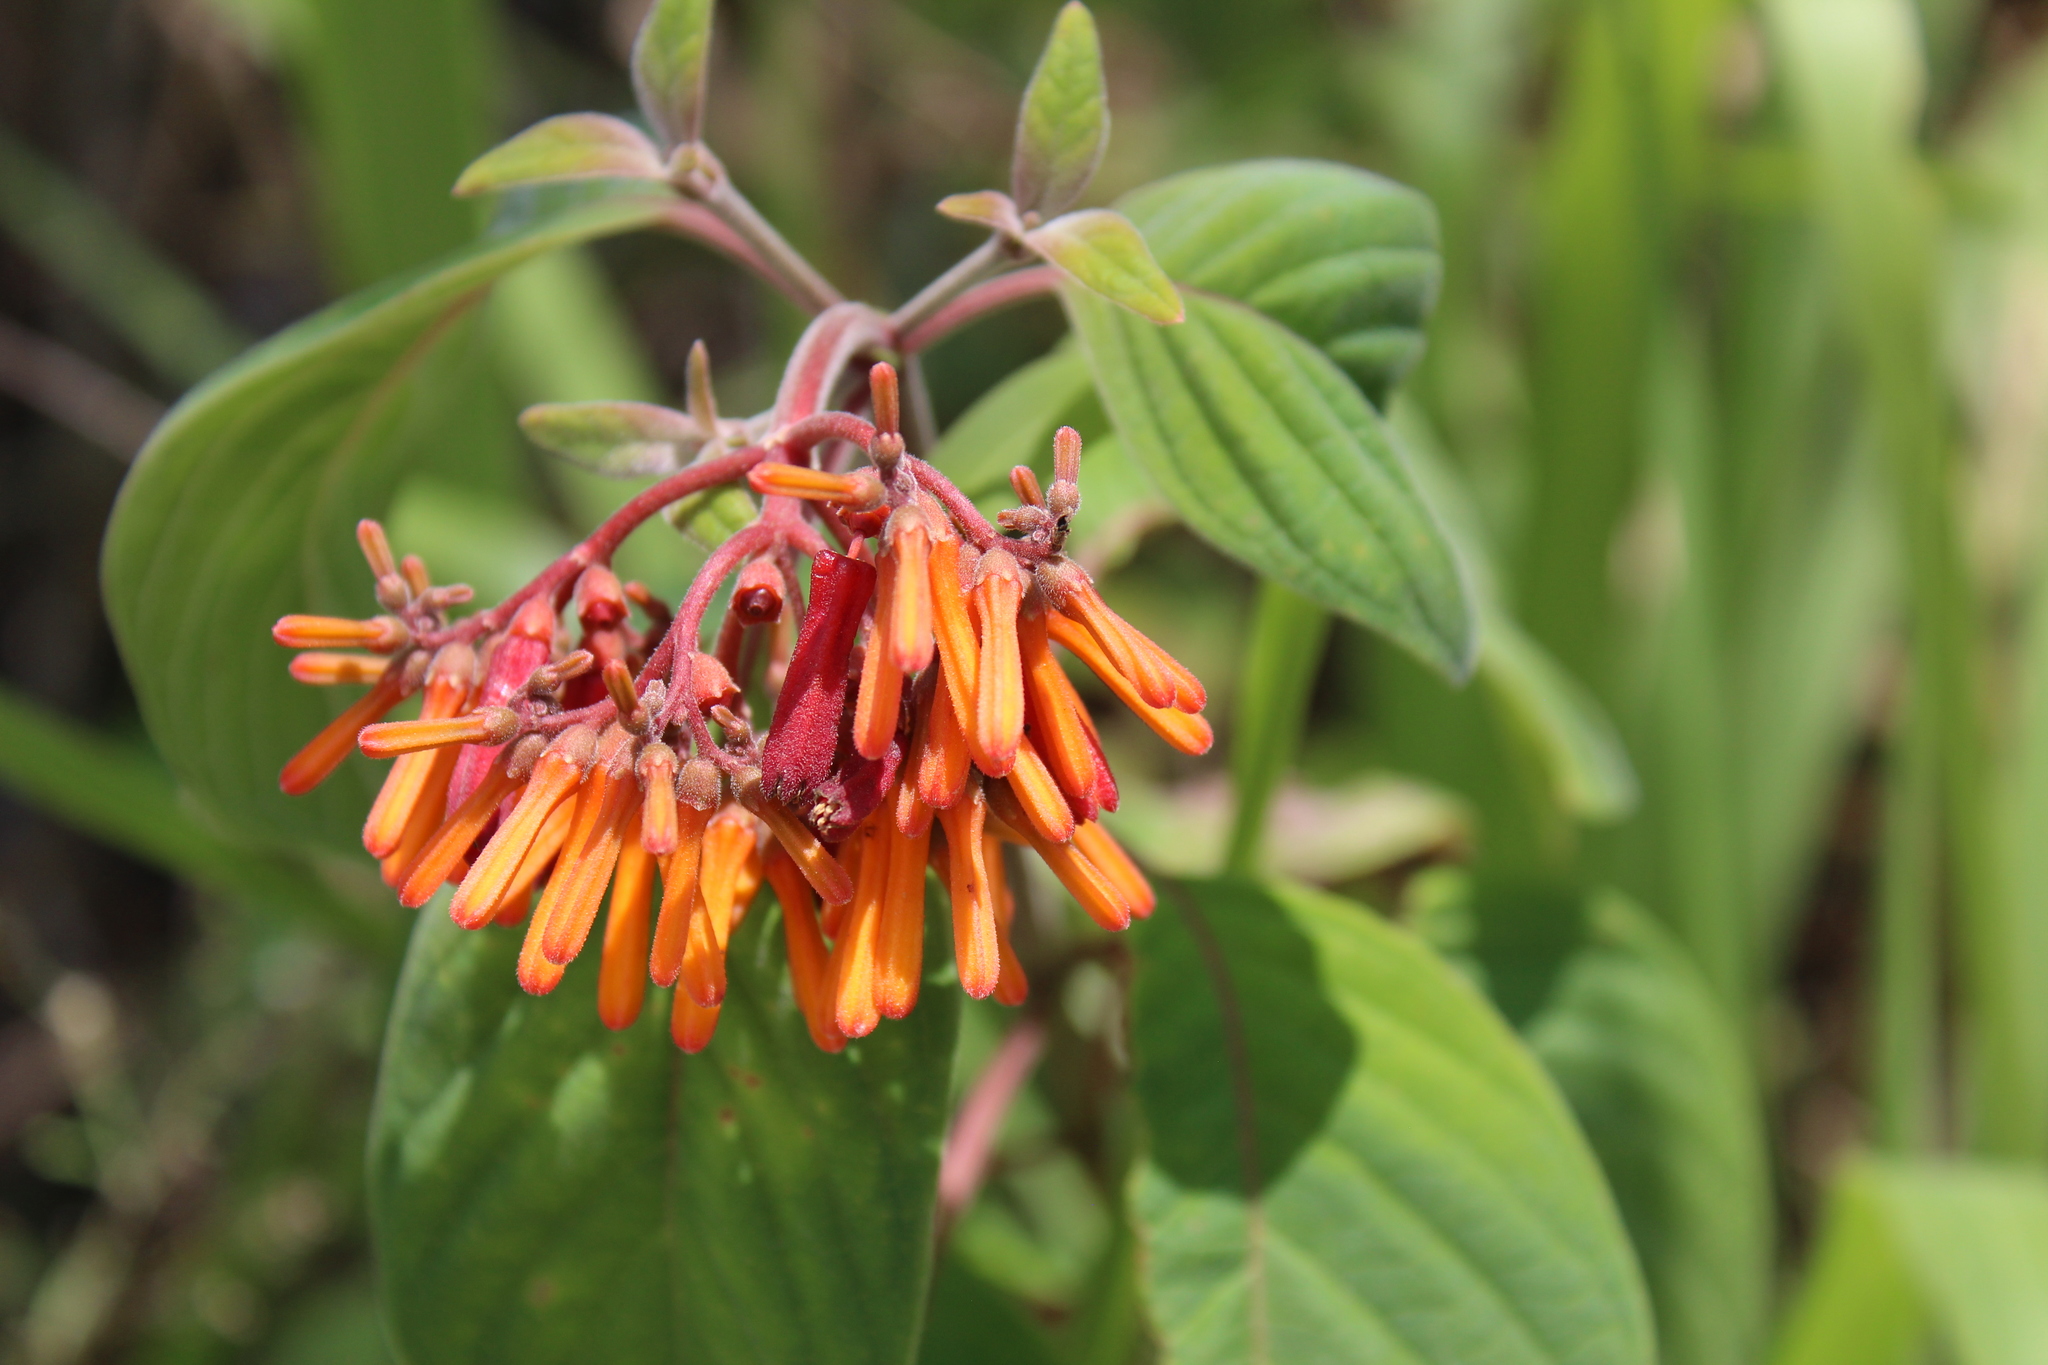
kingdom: Plantae
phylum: Tracheophyta
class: Magnoliopsida
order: Gentianales
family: Rubiaceae
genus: Hamelia
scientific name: Hamelia patens
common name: Redhead
